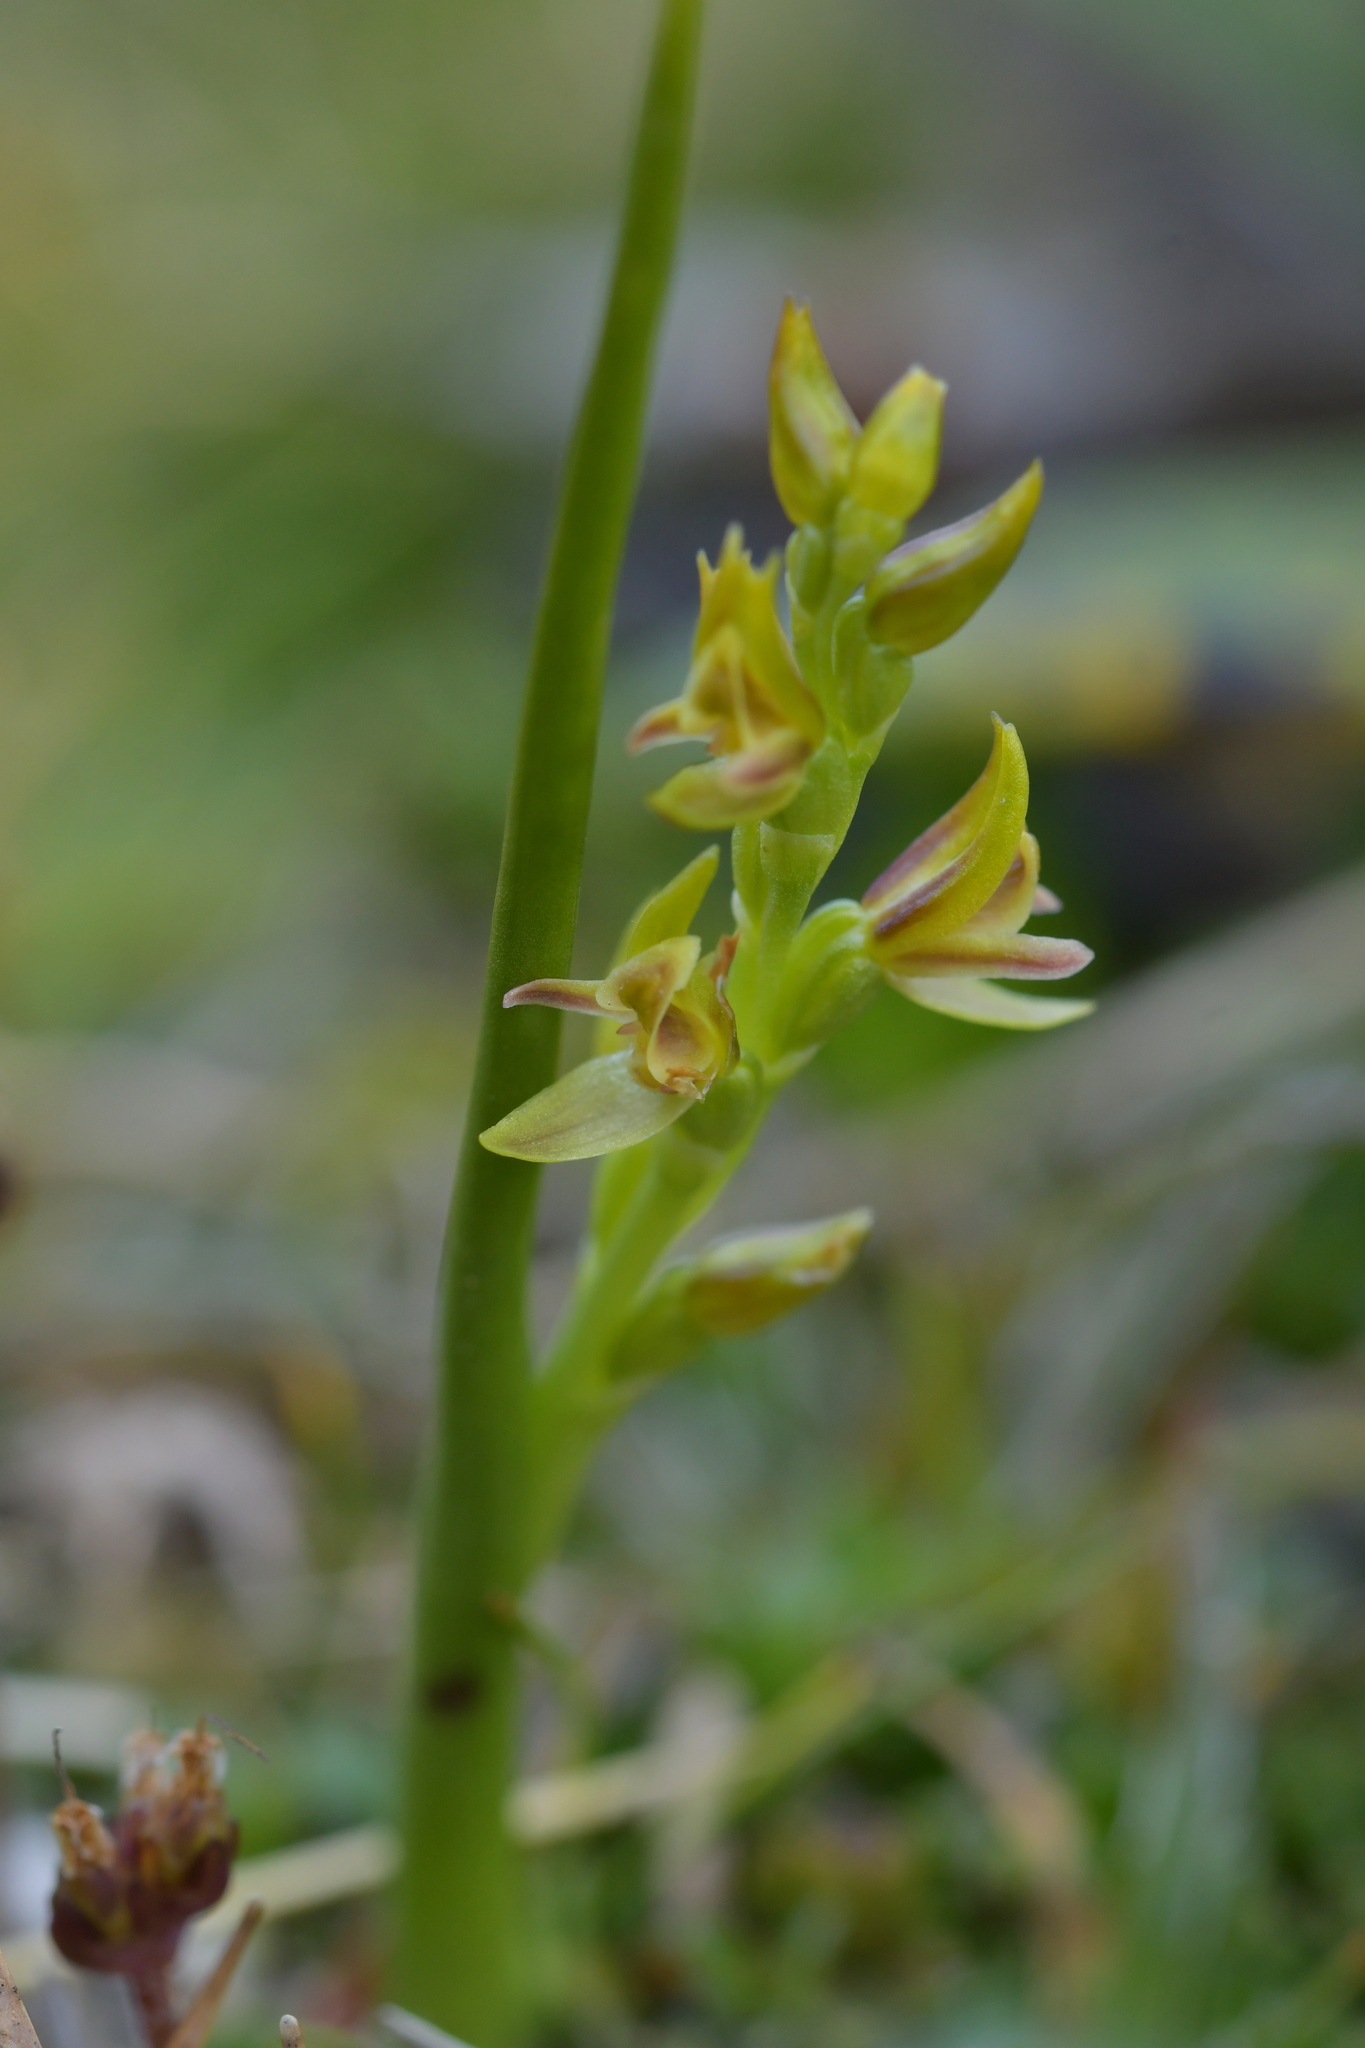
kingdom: Plantae
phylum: Tracheophyta
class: Liliopsida
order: Asparagales
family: Orchidaceae
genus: Prasophyllum
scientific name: Prasophyllum colensoi
